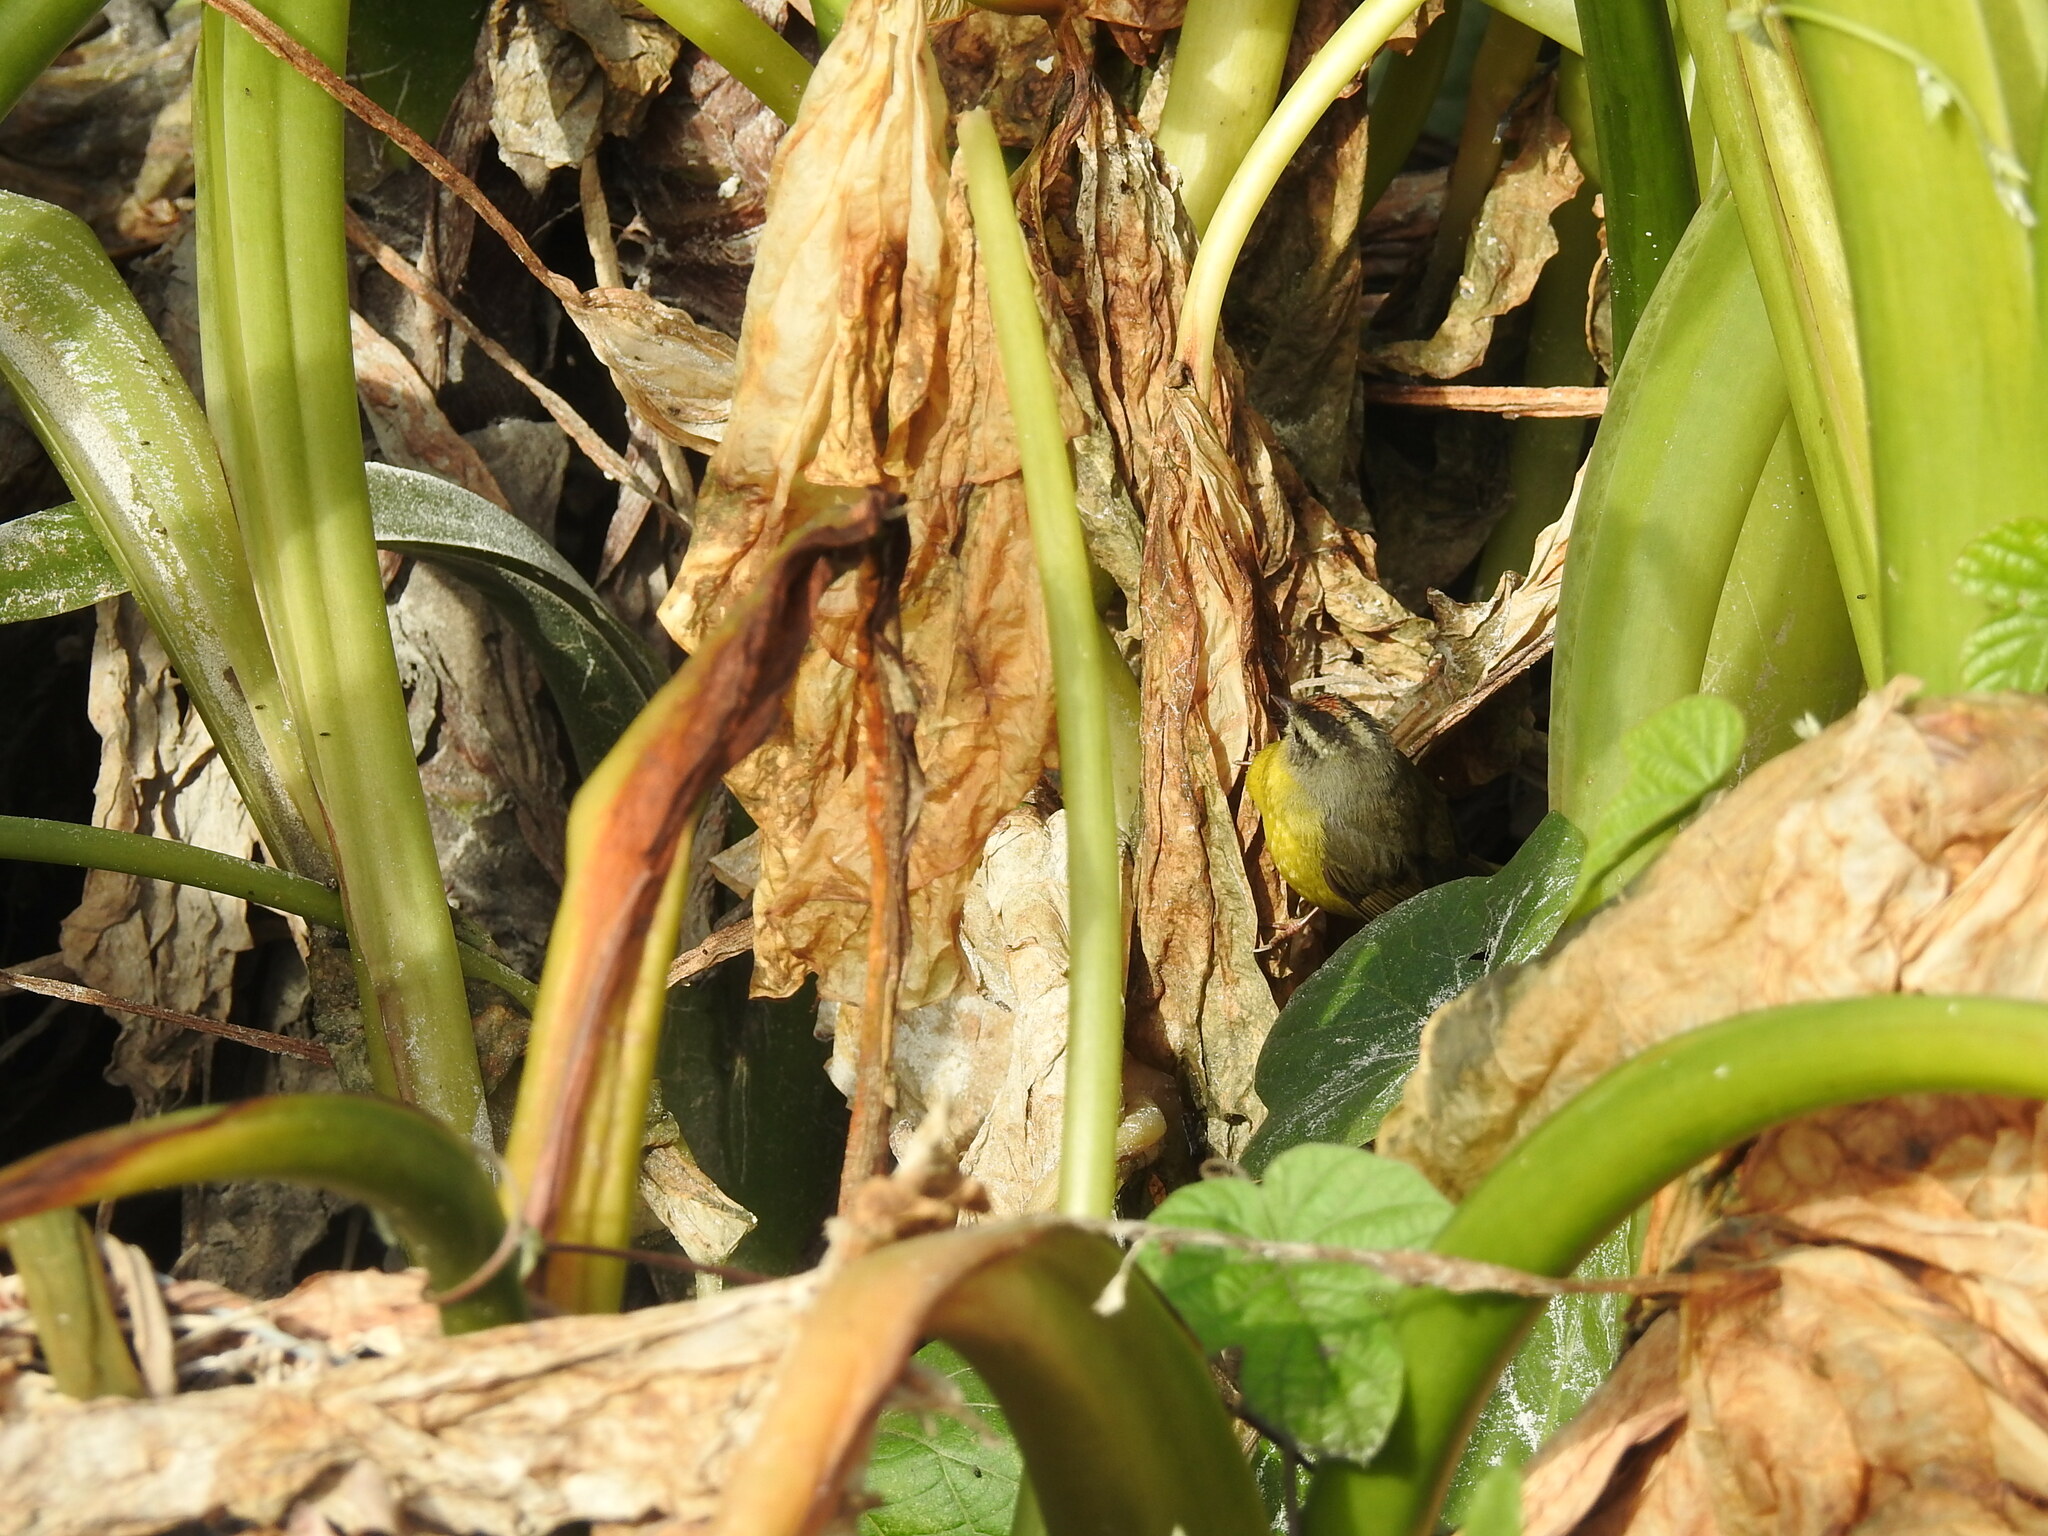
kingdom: Animalia
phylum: Chordata
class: Aves
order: Passeriformes
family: Parulidae
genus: Basileuterus
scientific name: Basileuterus culicivorus
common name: Golden-crowned warbler
